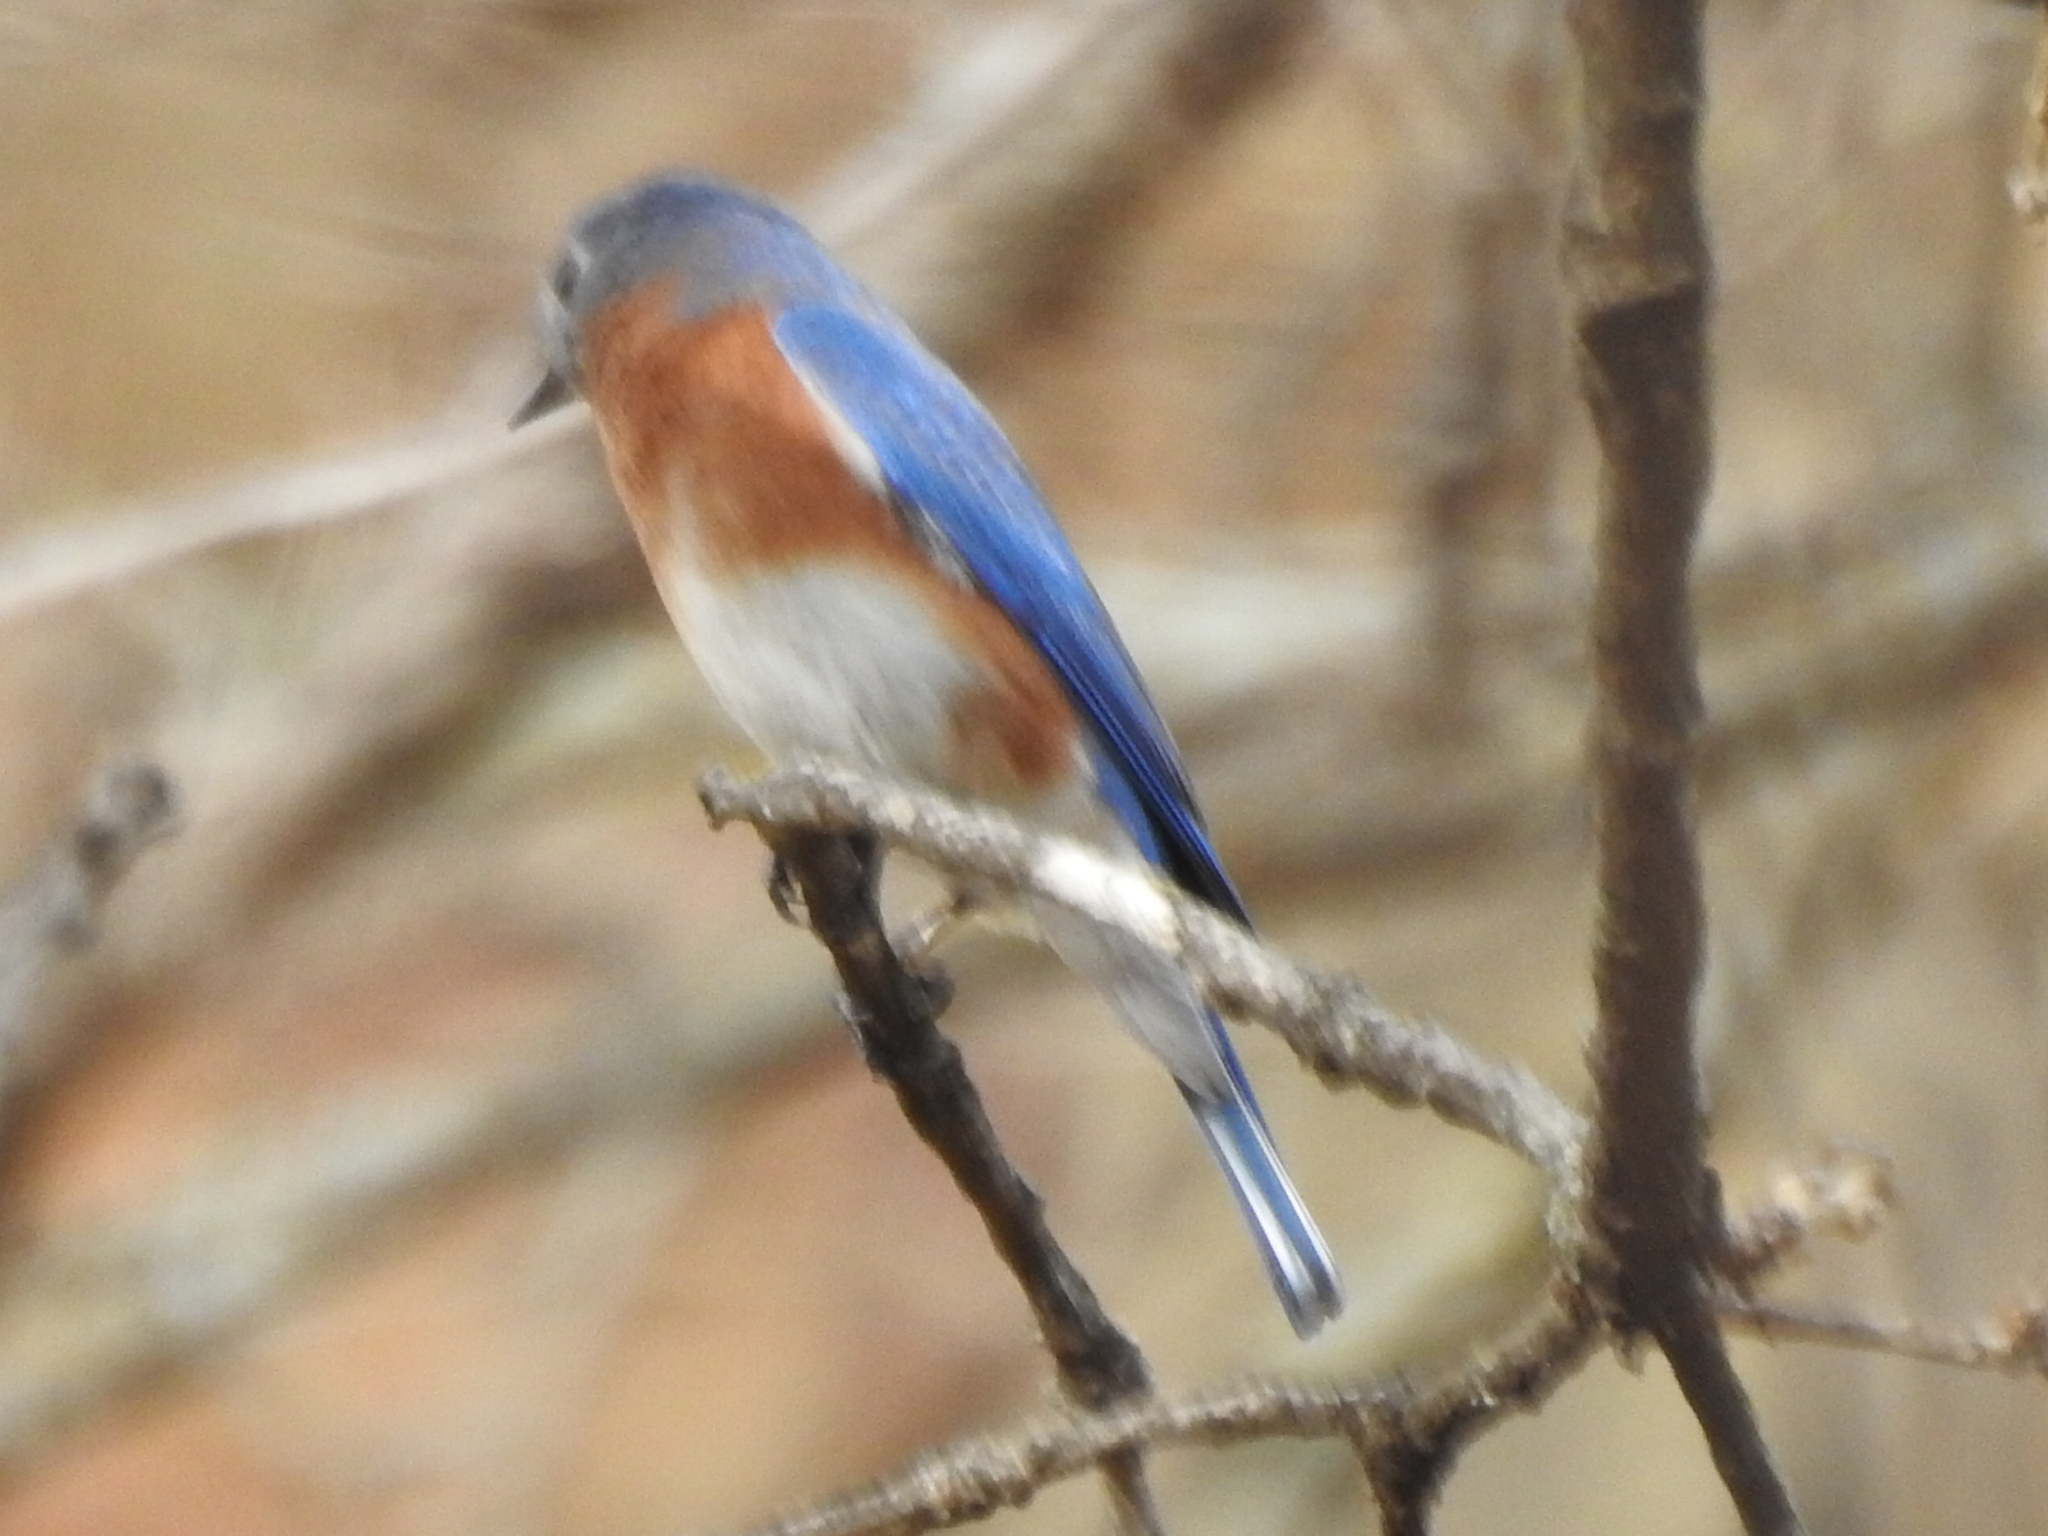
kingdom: Animalia
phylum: Chordata
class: Aves
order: Passeriformes
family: Turdidae
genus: Sialia
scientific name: Sialia sialis
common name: Eastern bluebird
